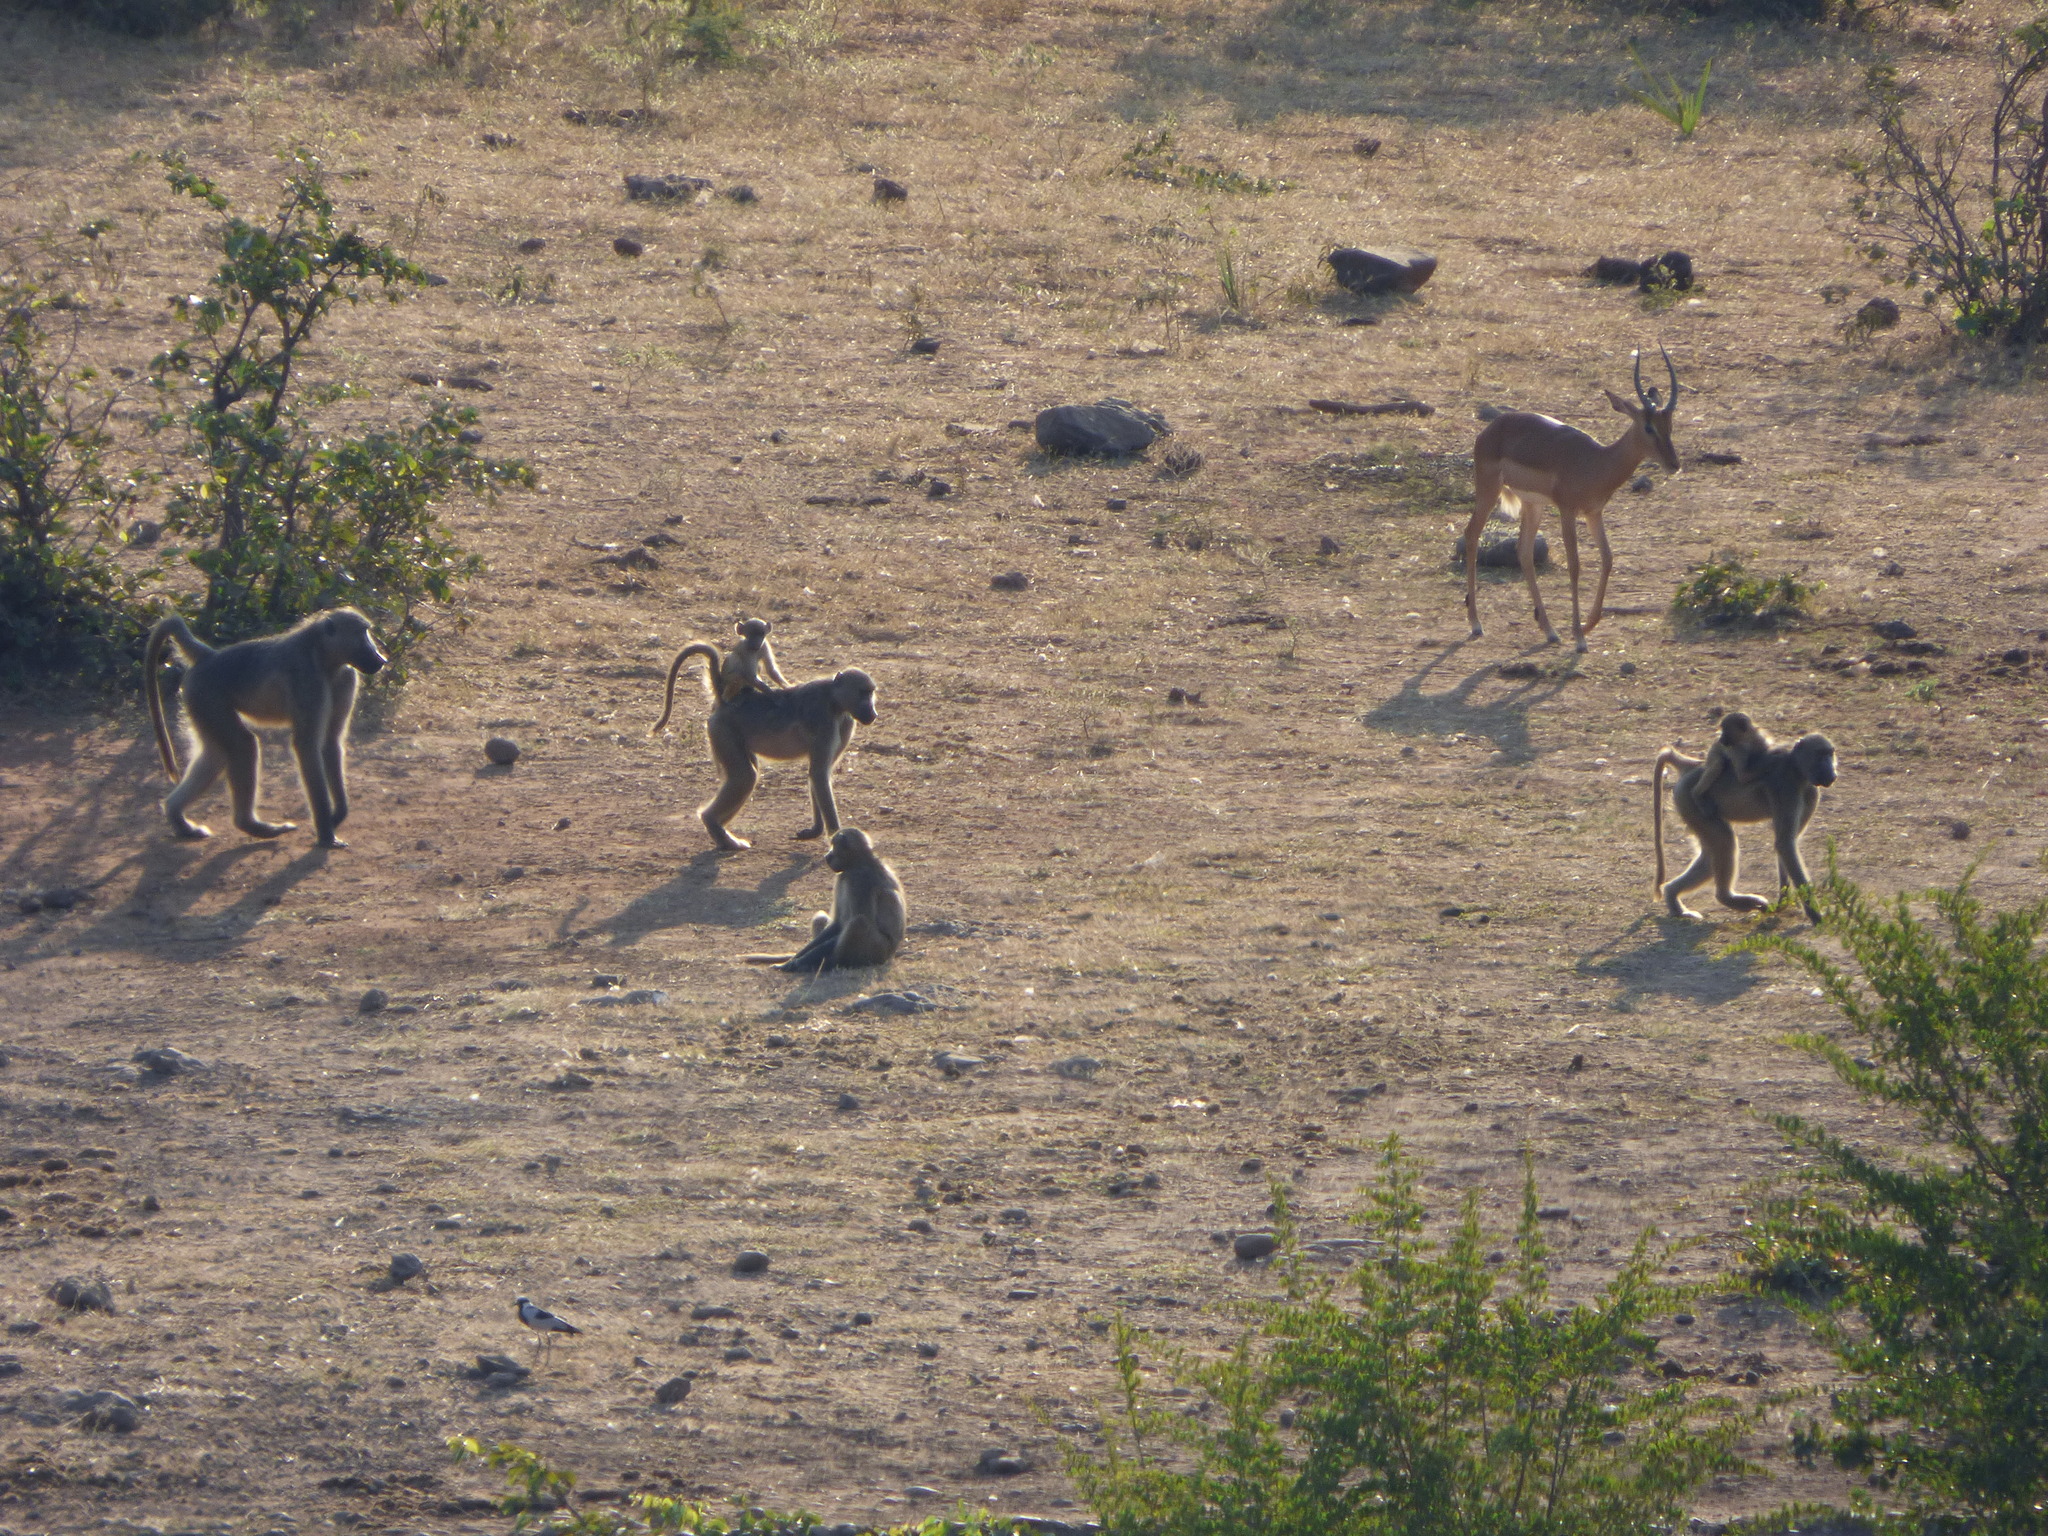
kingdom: Animalia
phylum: Chordata
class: Mammalia
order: Primates
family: Cercopithecidae
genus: Papio
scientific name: Papio ursinus
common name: Chacma baboon
